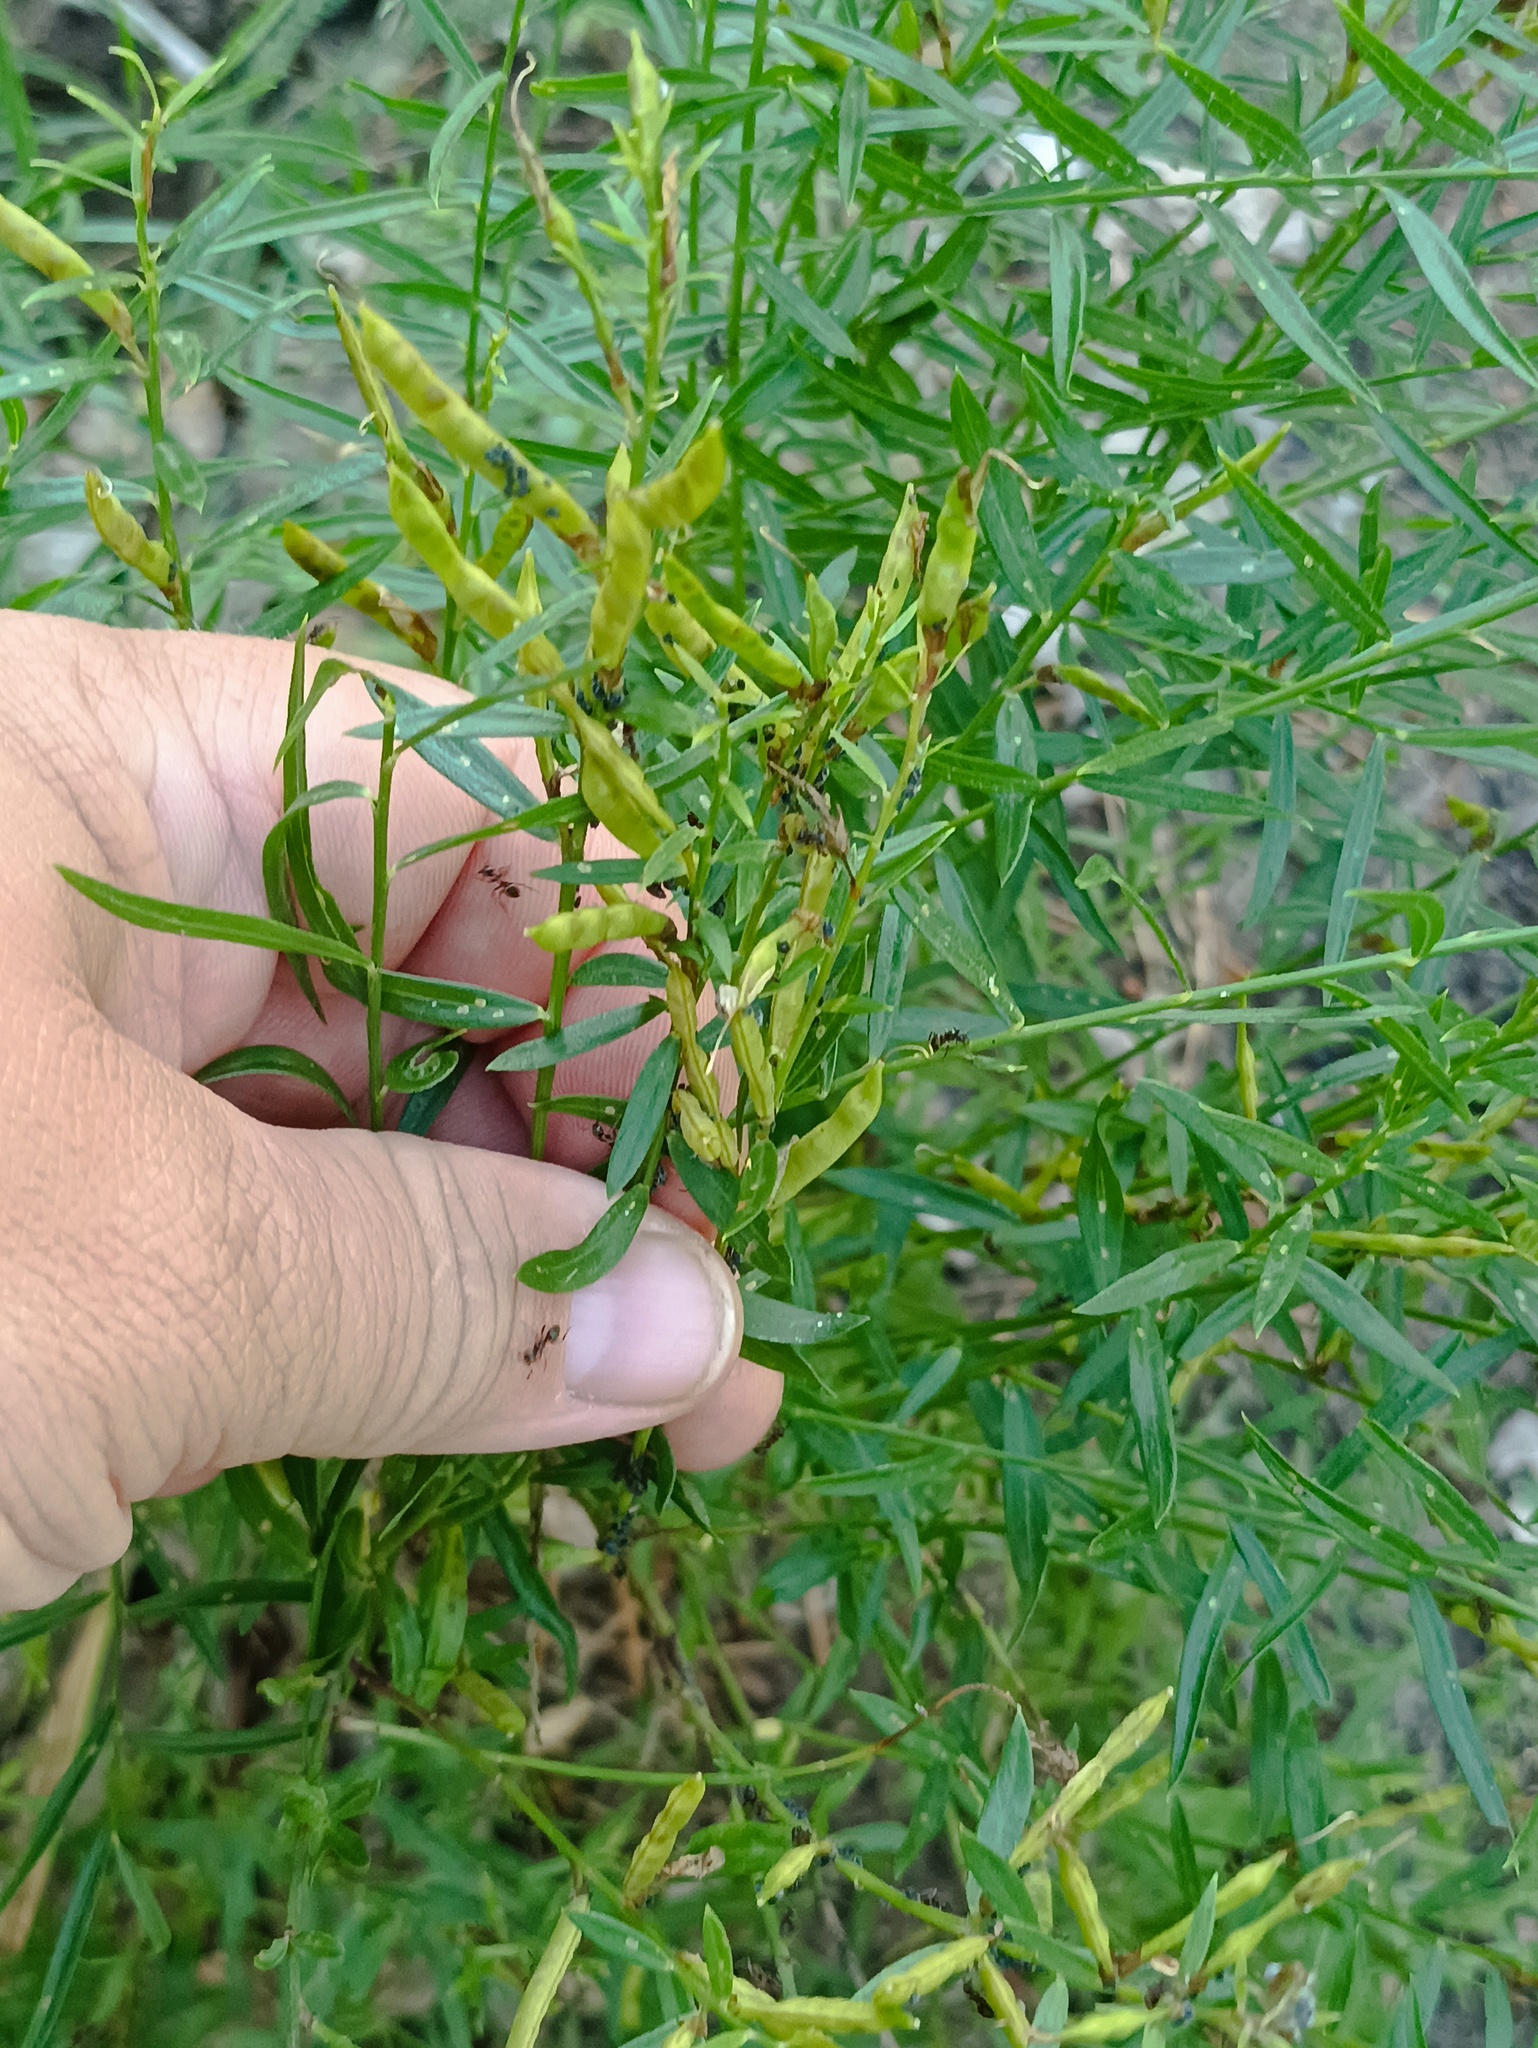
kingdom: Plantae
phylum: Tracheophyta
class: Magnoliopsida
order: Fabales
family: Fabaceae
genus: Genista
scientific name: Genista tinctoria
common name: Dyer's greenweed
